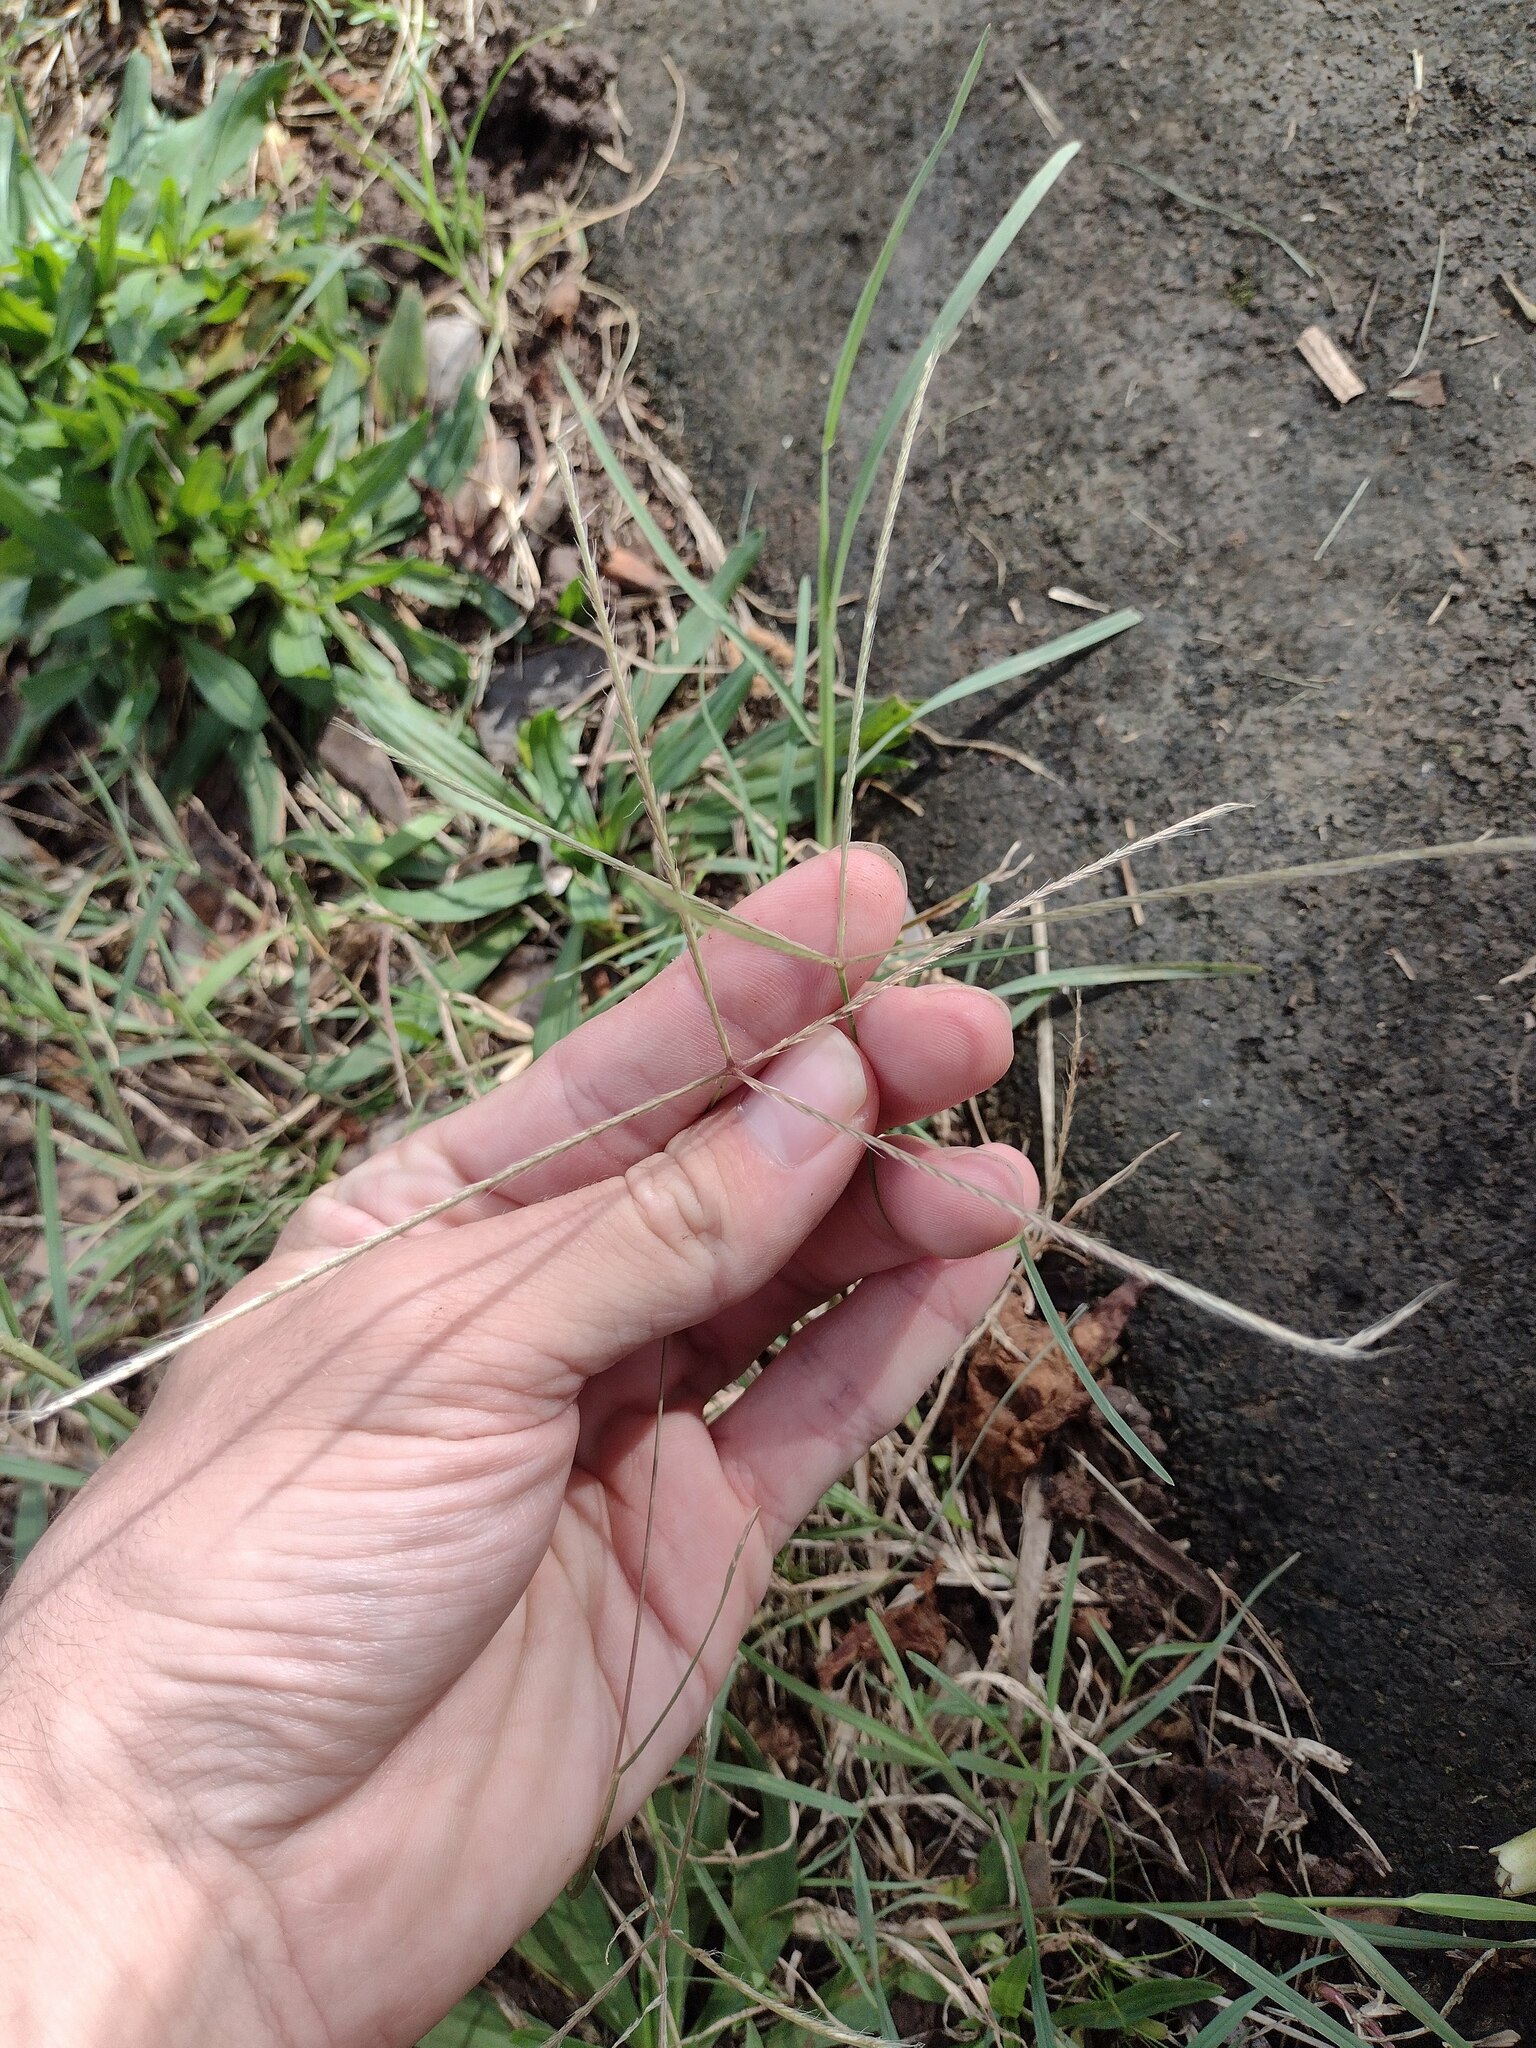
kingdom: Plantae
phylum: Tracheophyta
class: Liliopsida
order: Poales
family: Poaceae
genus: Chloris
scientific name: Chloris divaricata
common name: Spreading windmill grass
